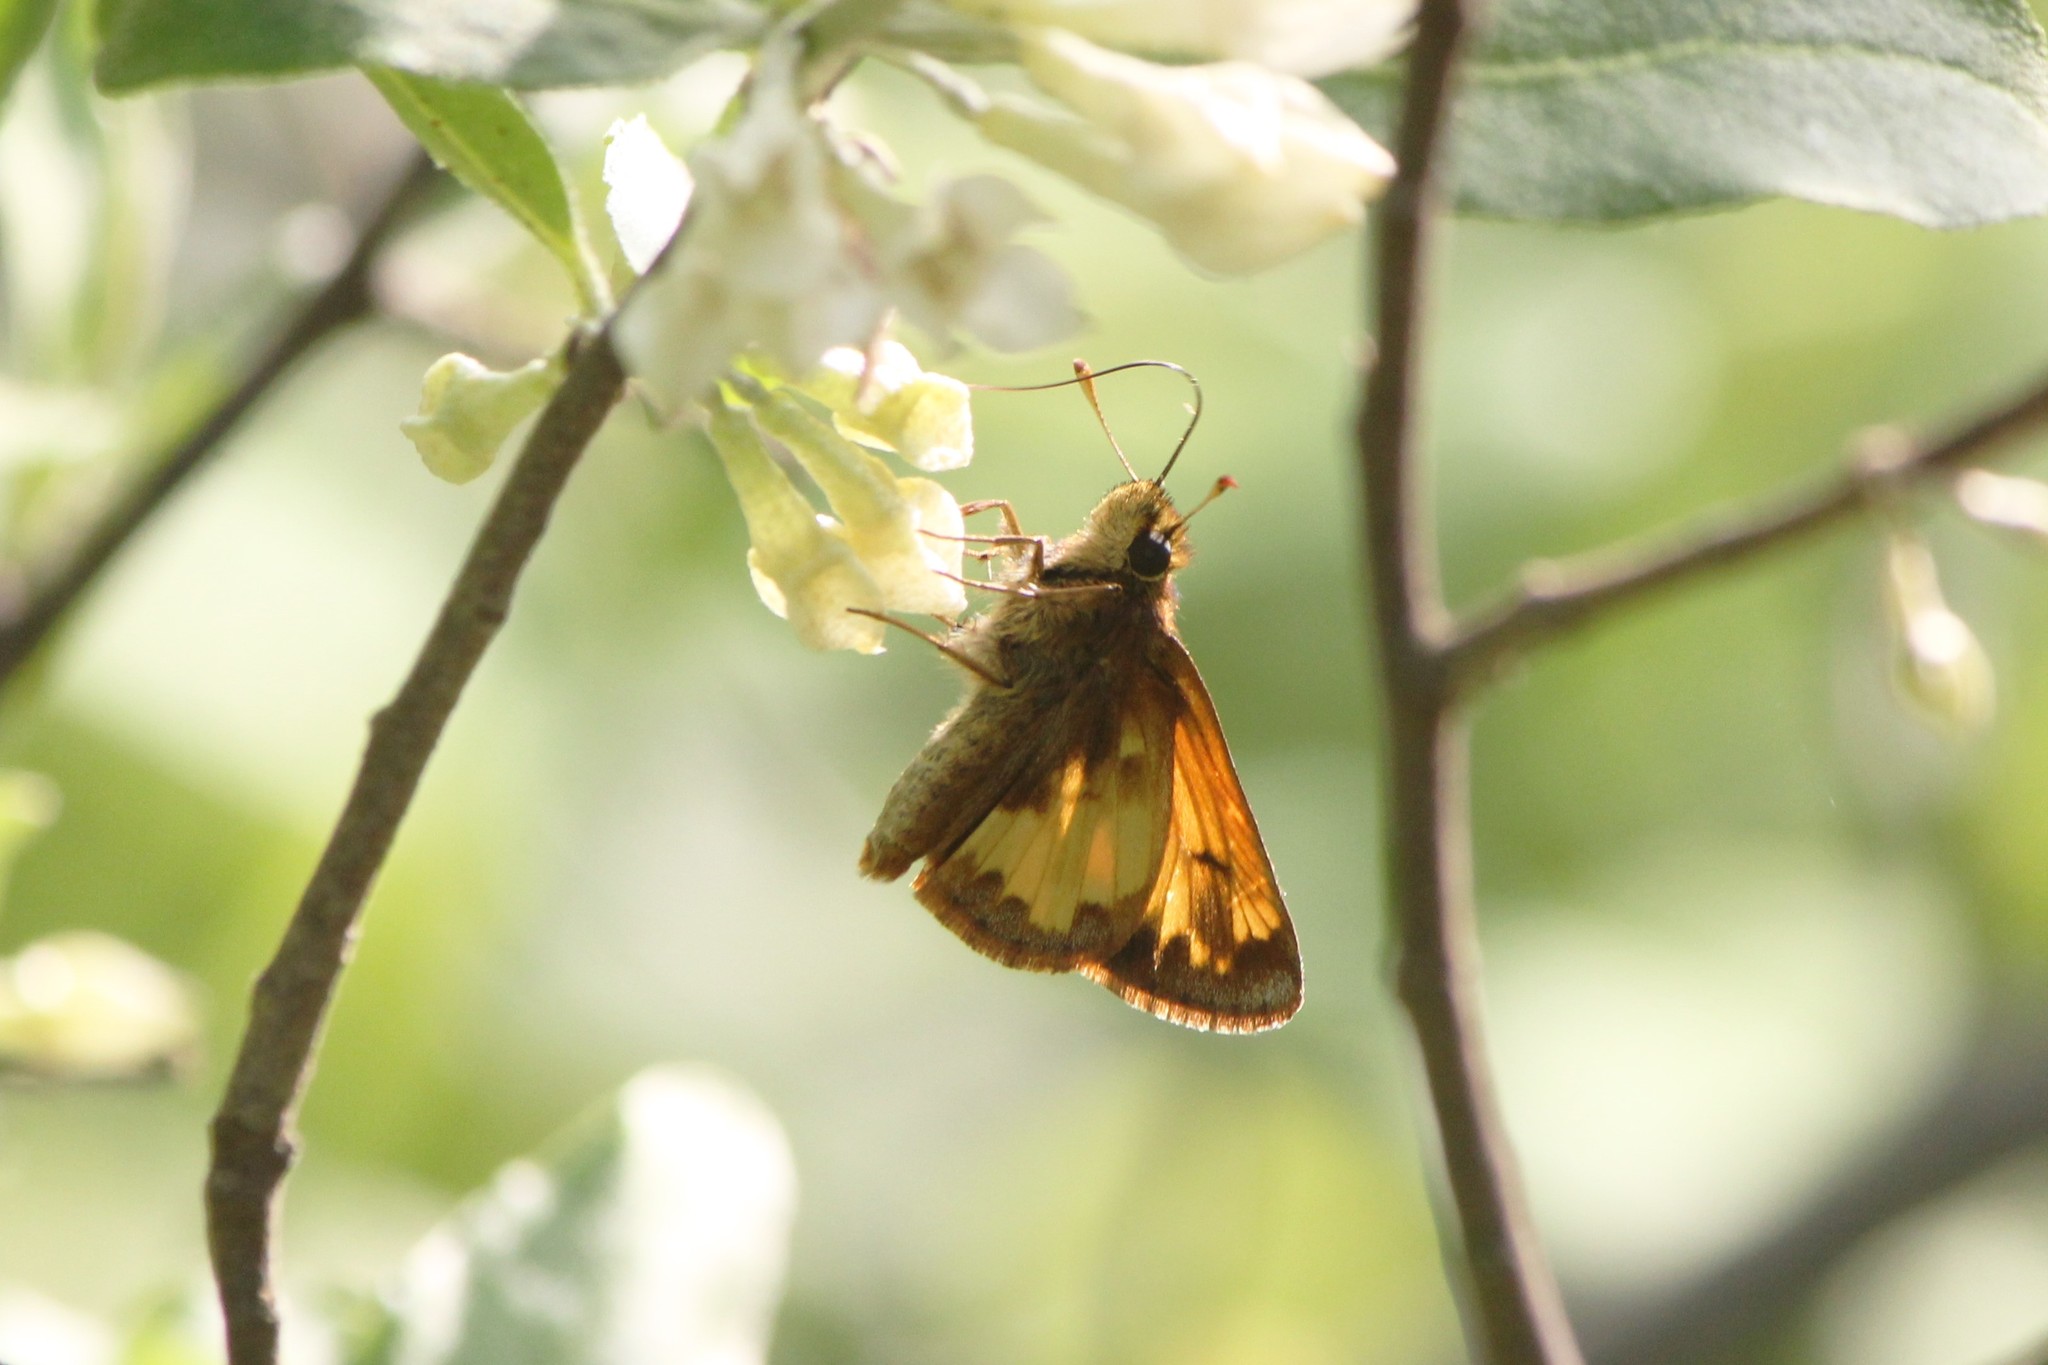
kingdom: Animalia
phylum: Arthropoda
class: Insecta
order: Lepidoptera
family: Hesperiidae
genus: Lon
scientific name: Lon hobomok
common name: Hobomok skipper
